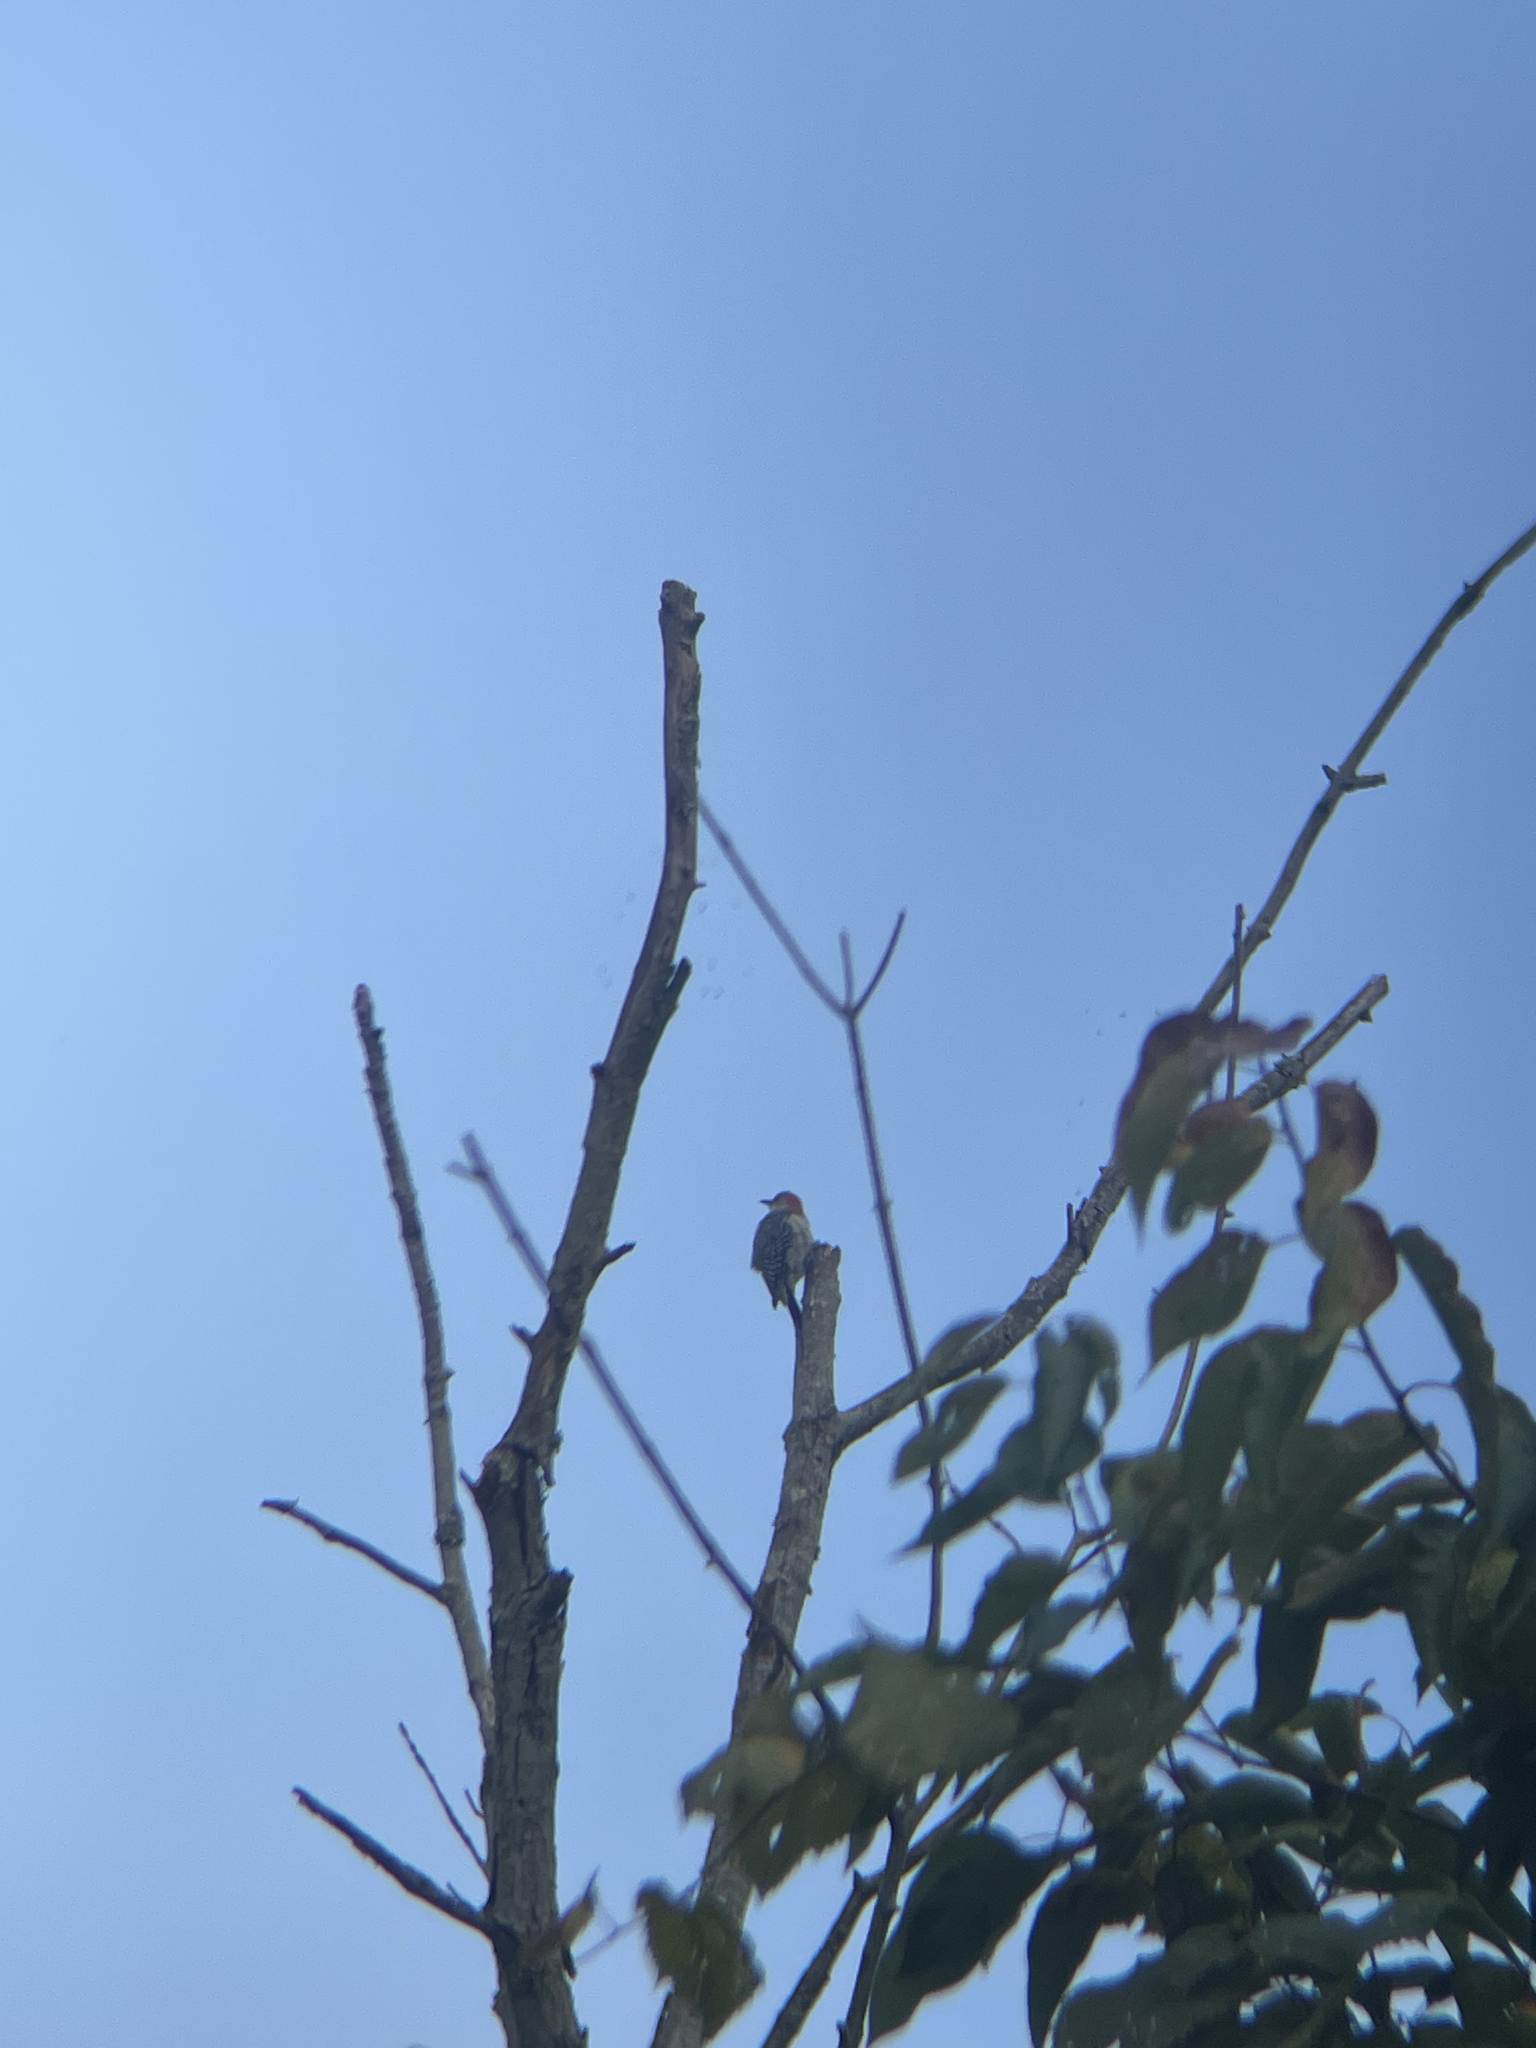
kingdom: Animalia
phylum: Chordata
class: Aves
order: Piciformes
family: Picidae
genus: Melanerpes
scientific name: Melanerpes carolinus
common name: Red-bellied woodpecker
